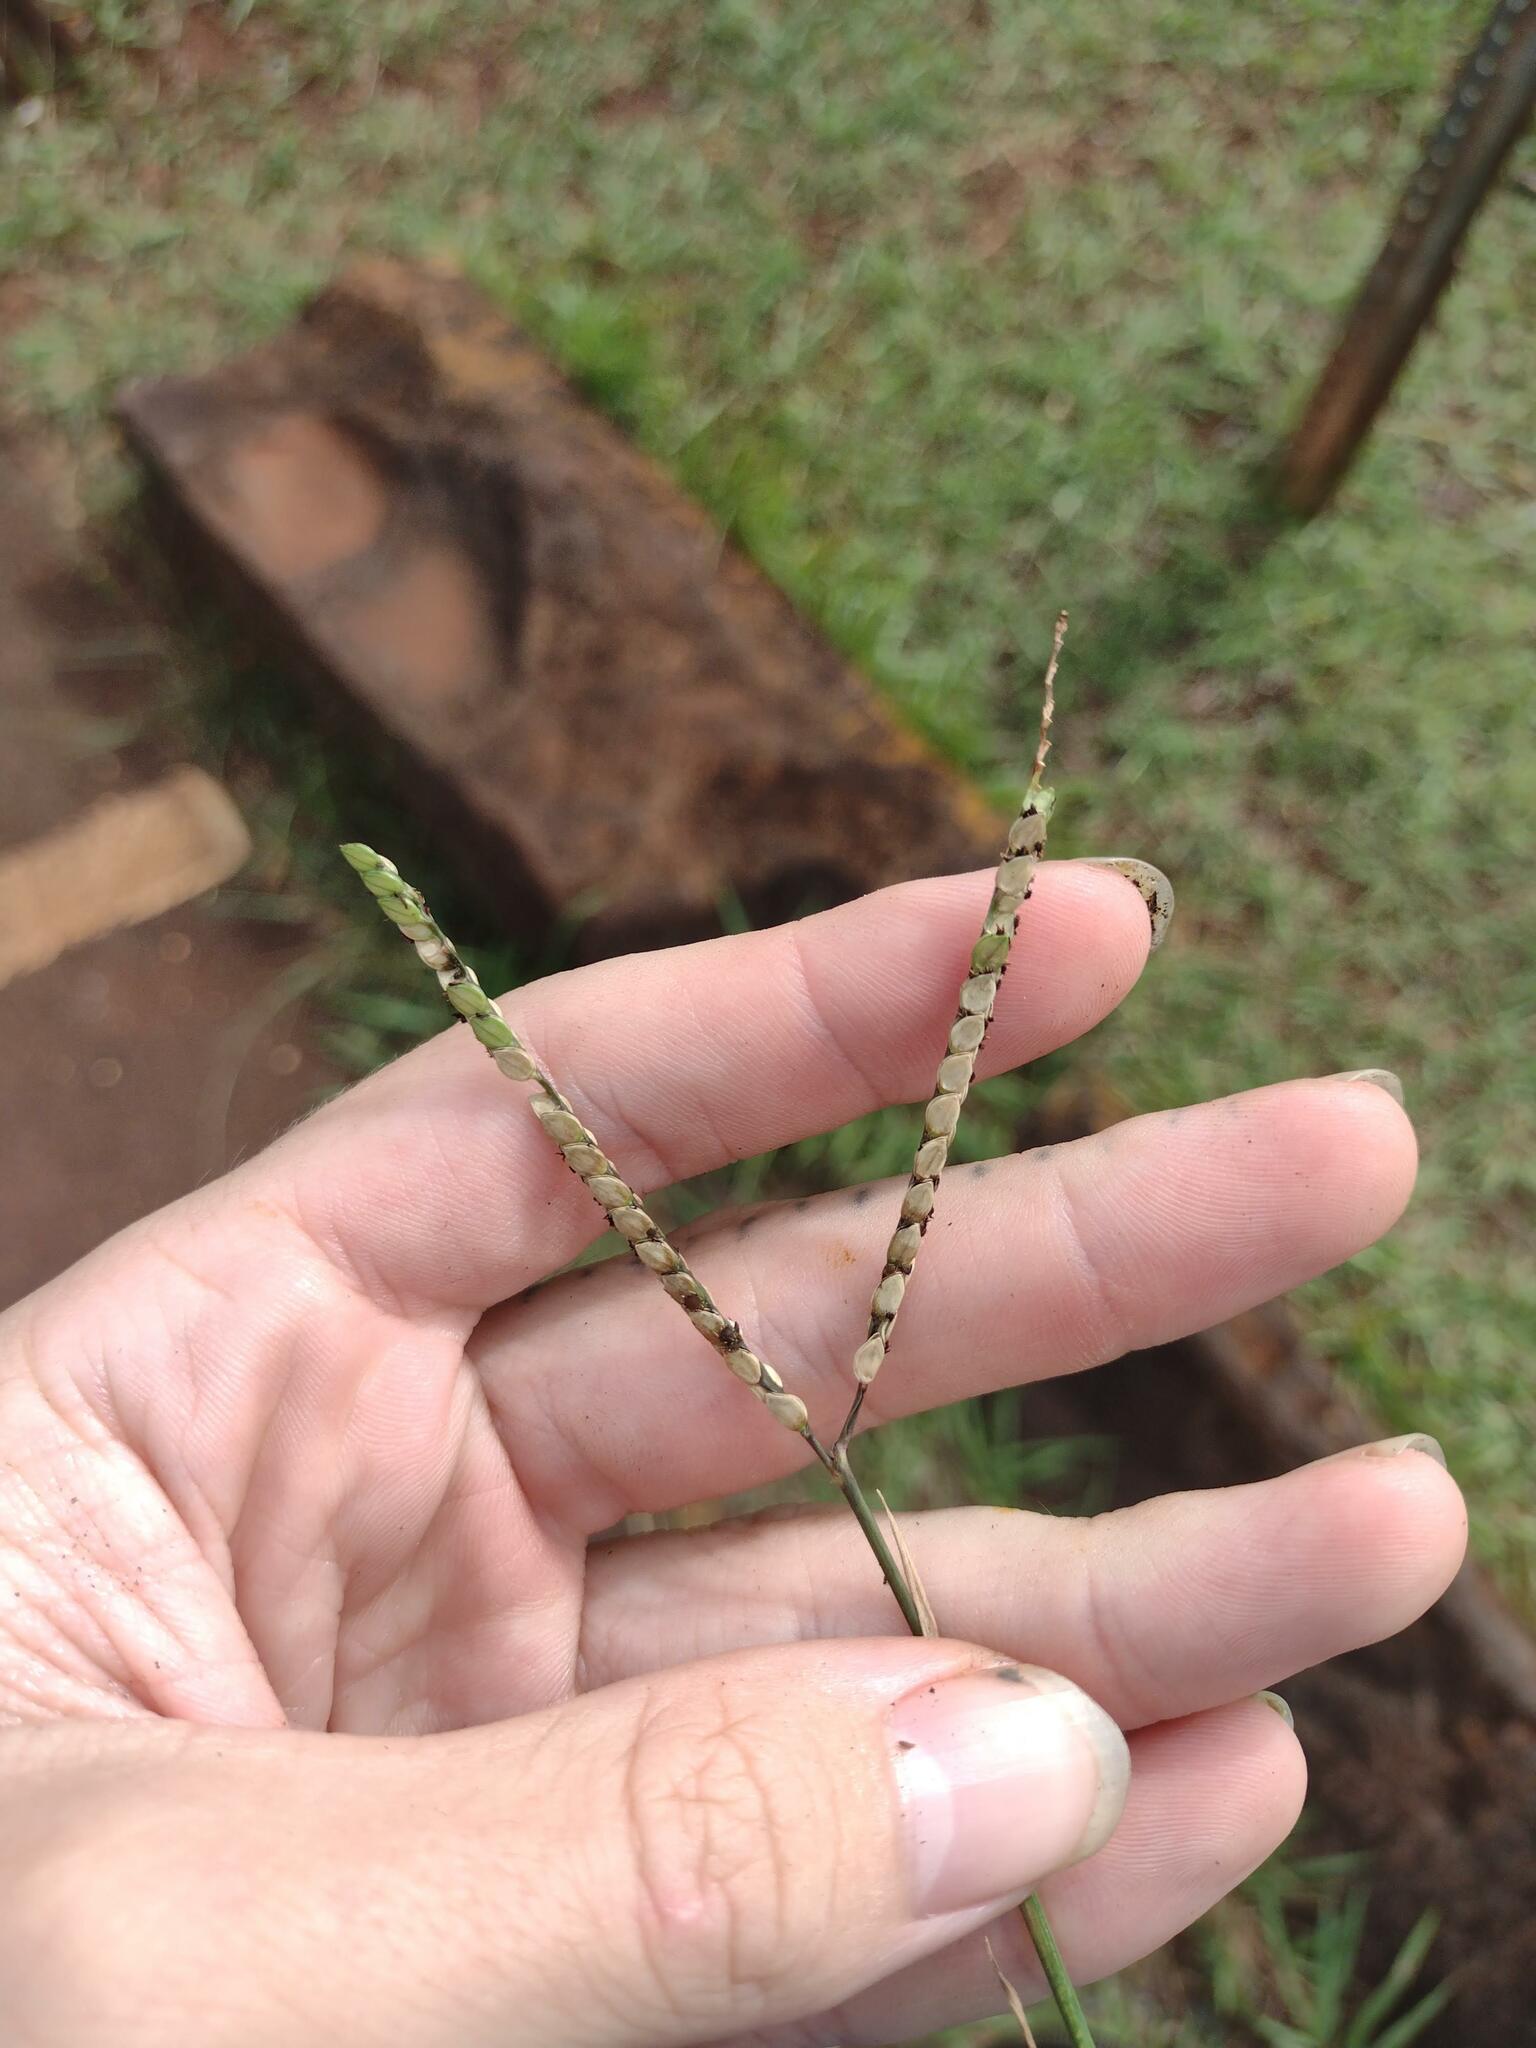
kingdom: Plantae
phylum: Tracheophyta
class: Liliopsida
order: Poales
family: Poaceae
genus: Paspalum
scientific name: Paspalum notatum
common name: Bahiagrass
